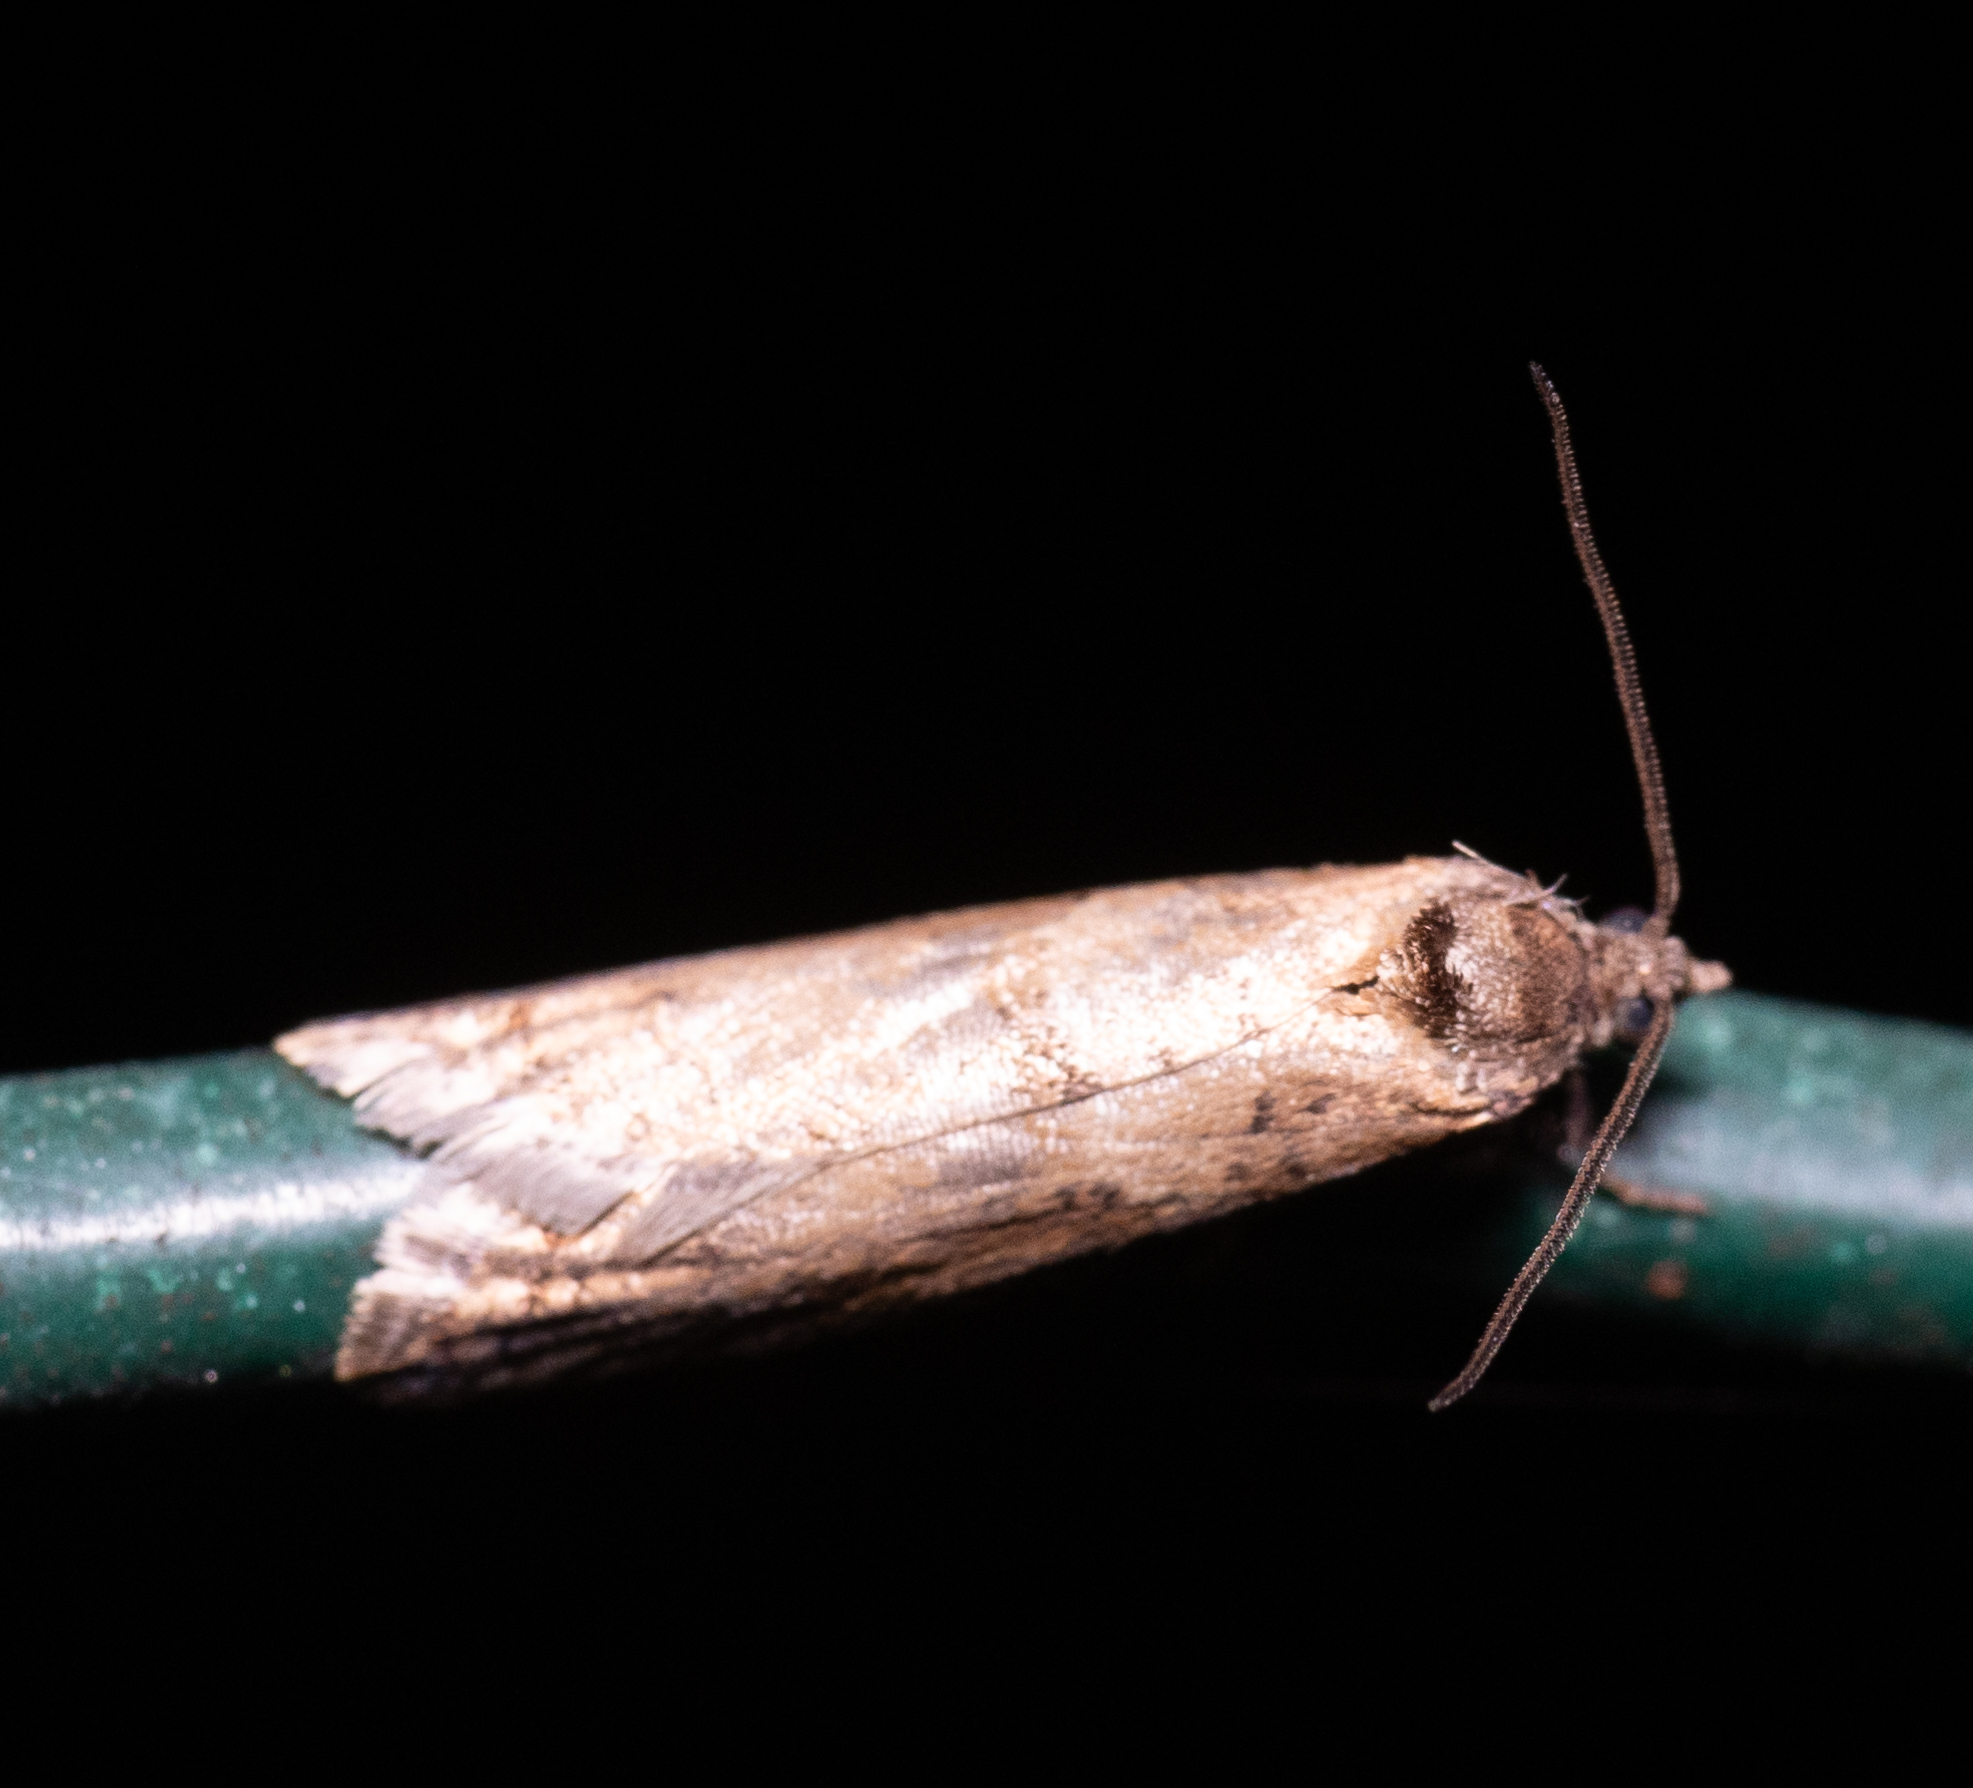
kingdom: Animalia
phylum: Arthropoda
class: Insecta
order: Lepidoptera
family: Tortricidae
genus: Tortricodes
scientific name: Tortricodes alternella
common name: Winter shade
